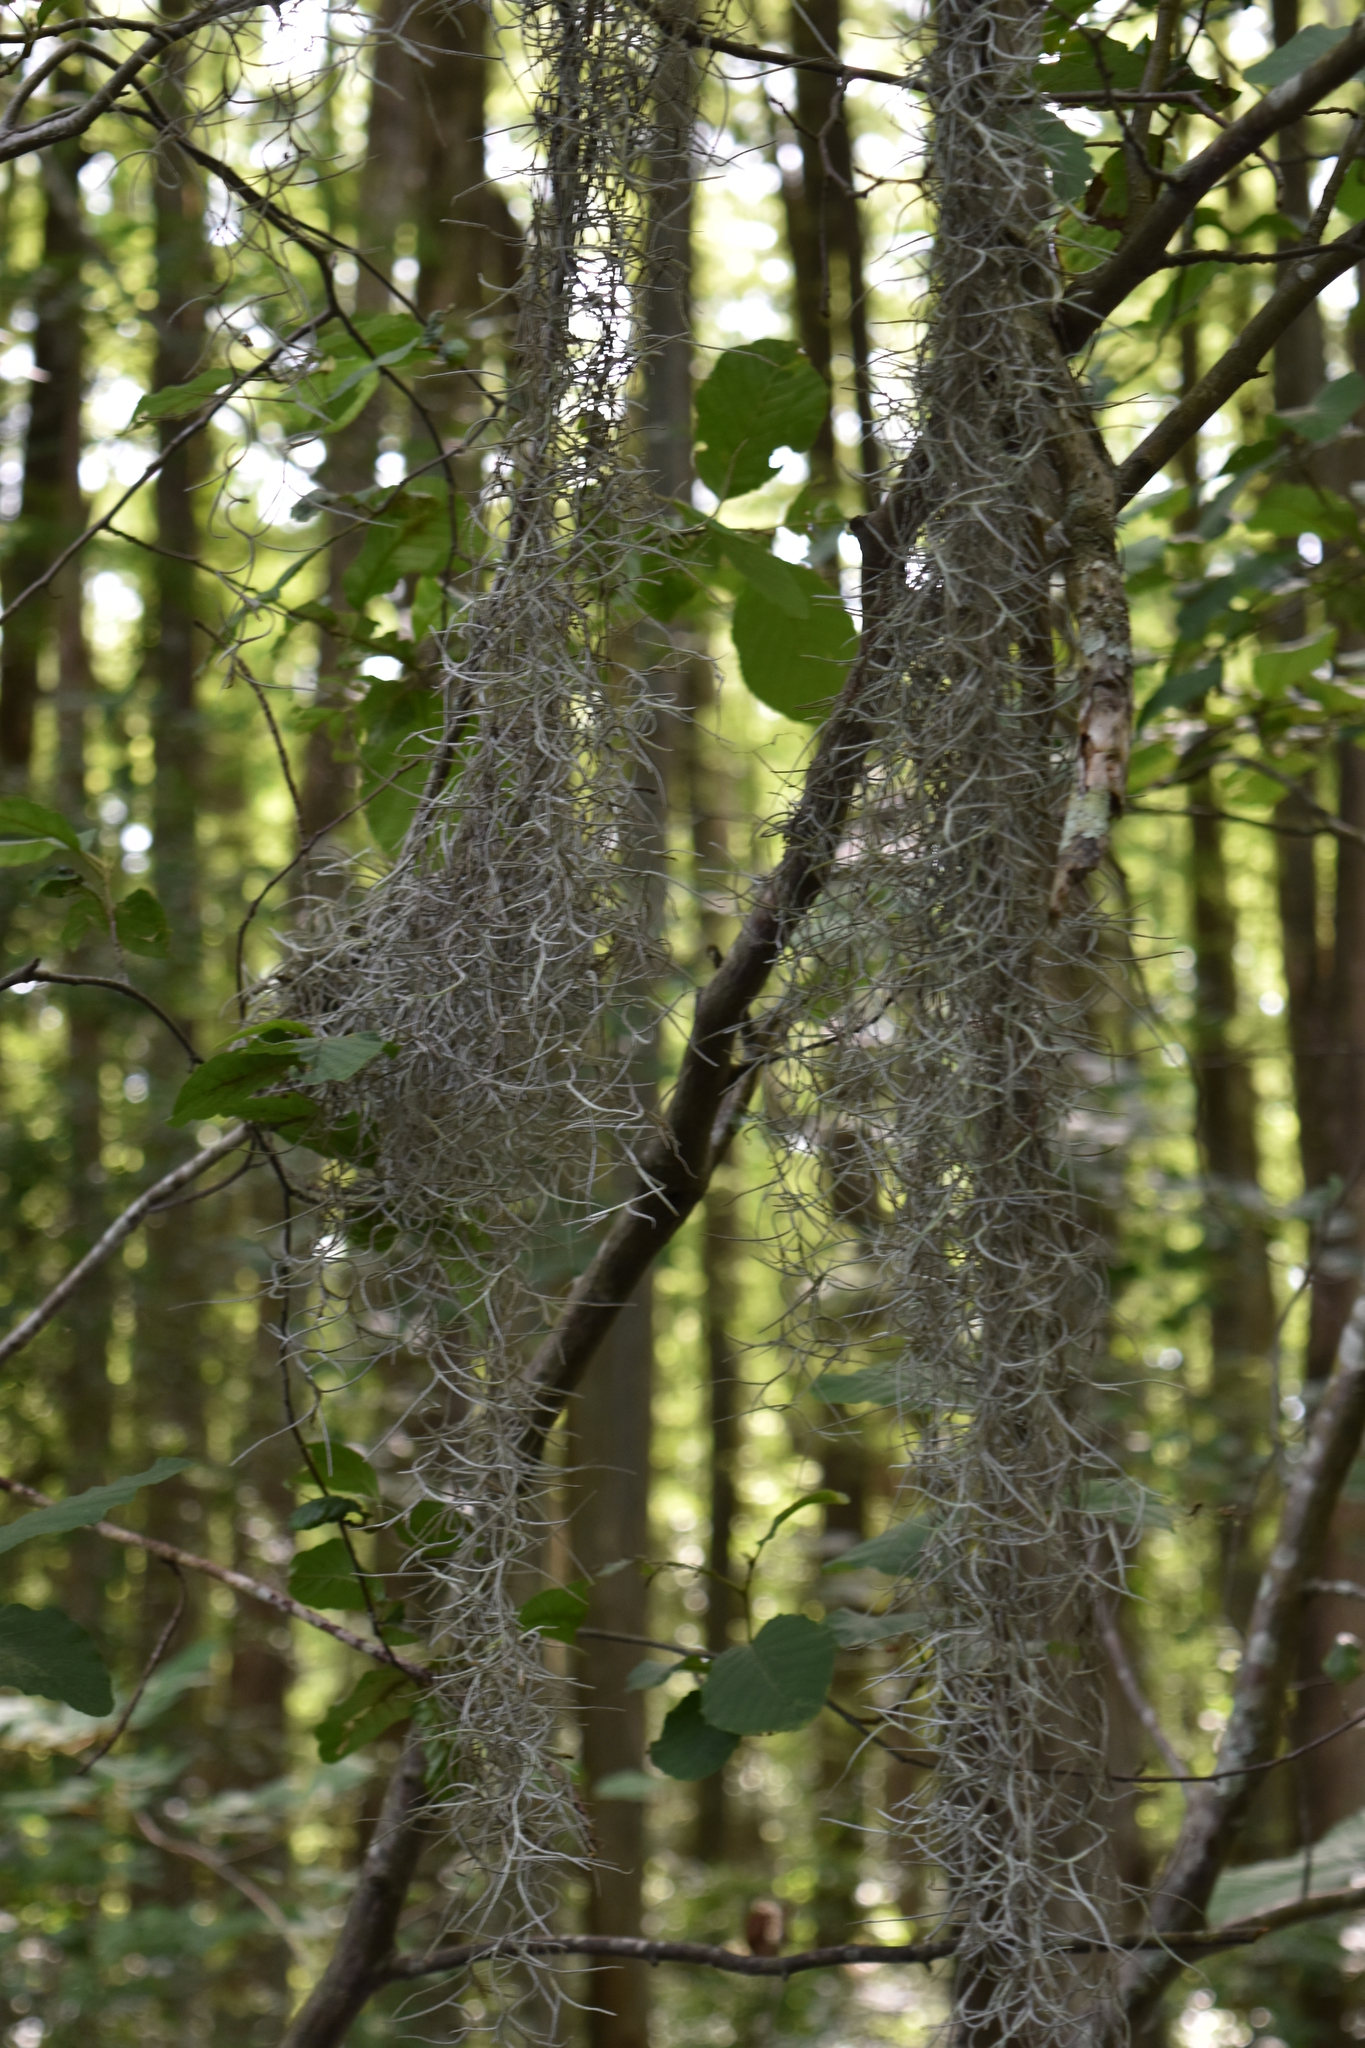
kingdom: Plantae
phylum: Tracheophyta
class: Liliopsida
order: Poales
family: Bromeliaceae
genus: Tillandsia
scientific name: Tillandsia usneoides
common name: Spanish moss
